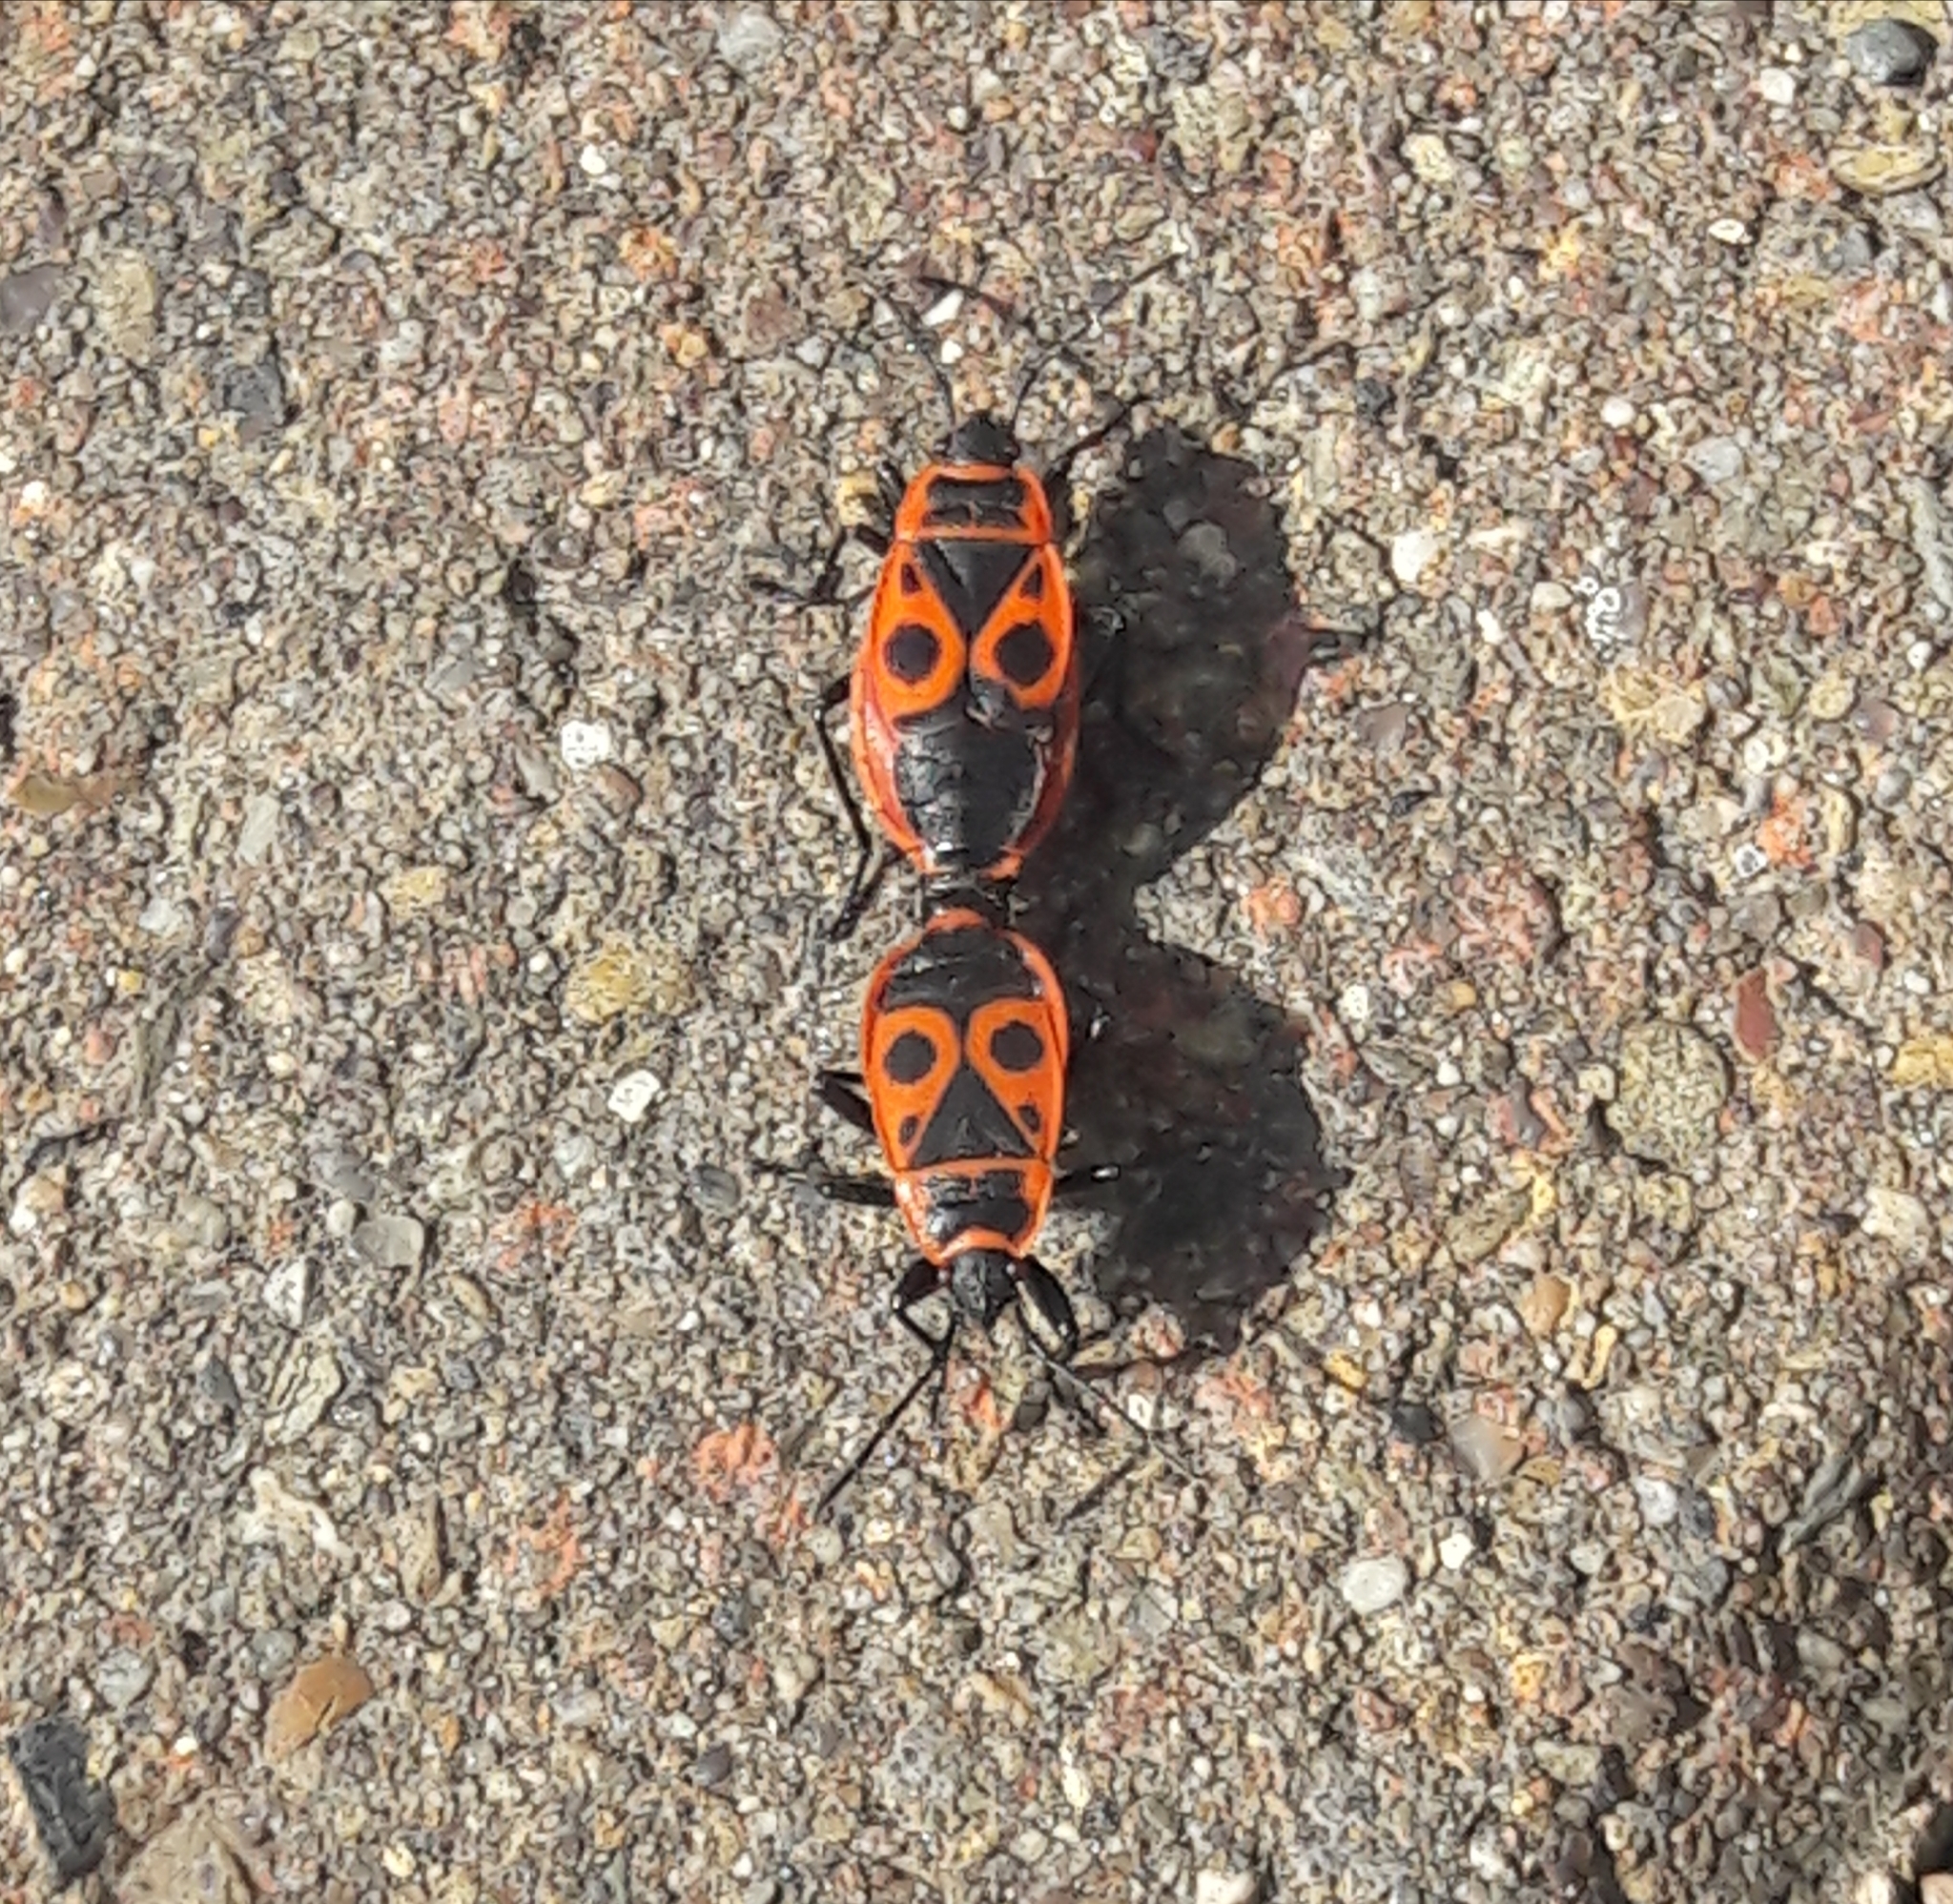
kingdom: Animalia
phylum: Arthropoda
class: Insecta
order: Hemiptera
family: Pyrrhocoridae
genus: Pyrrhocoris
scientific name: Pyrrhocoris apterus
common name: Firebug
